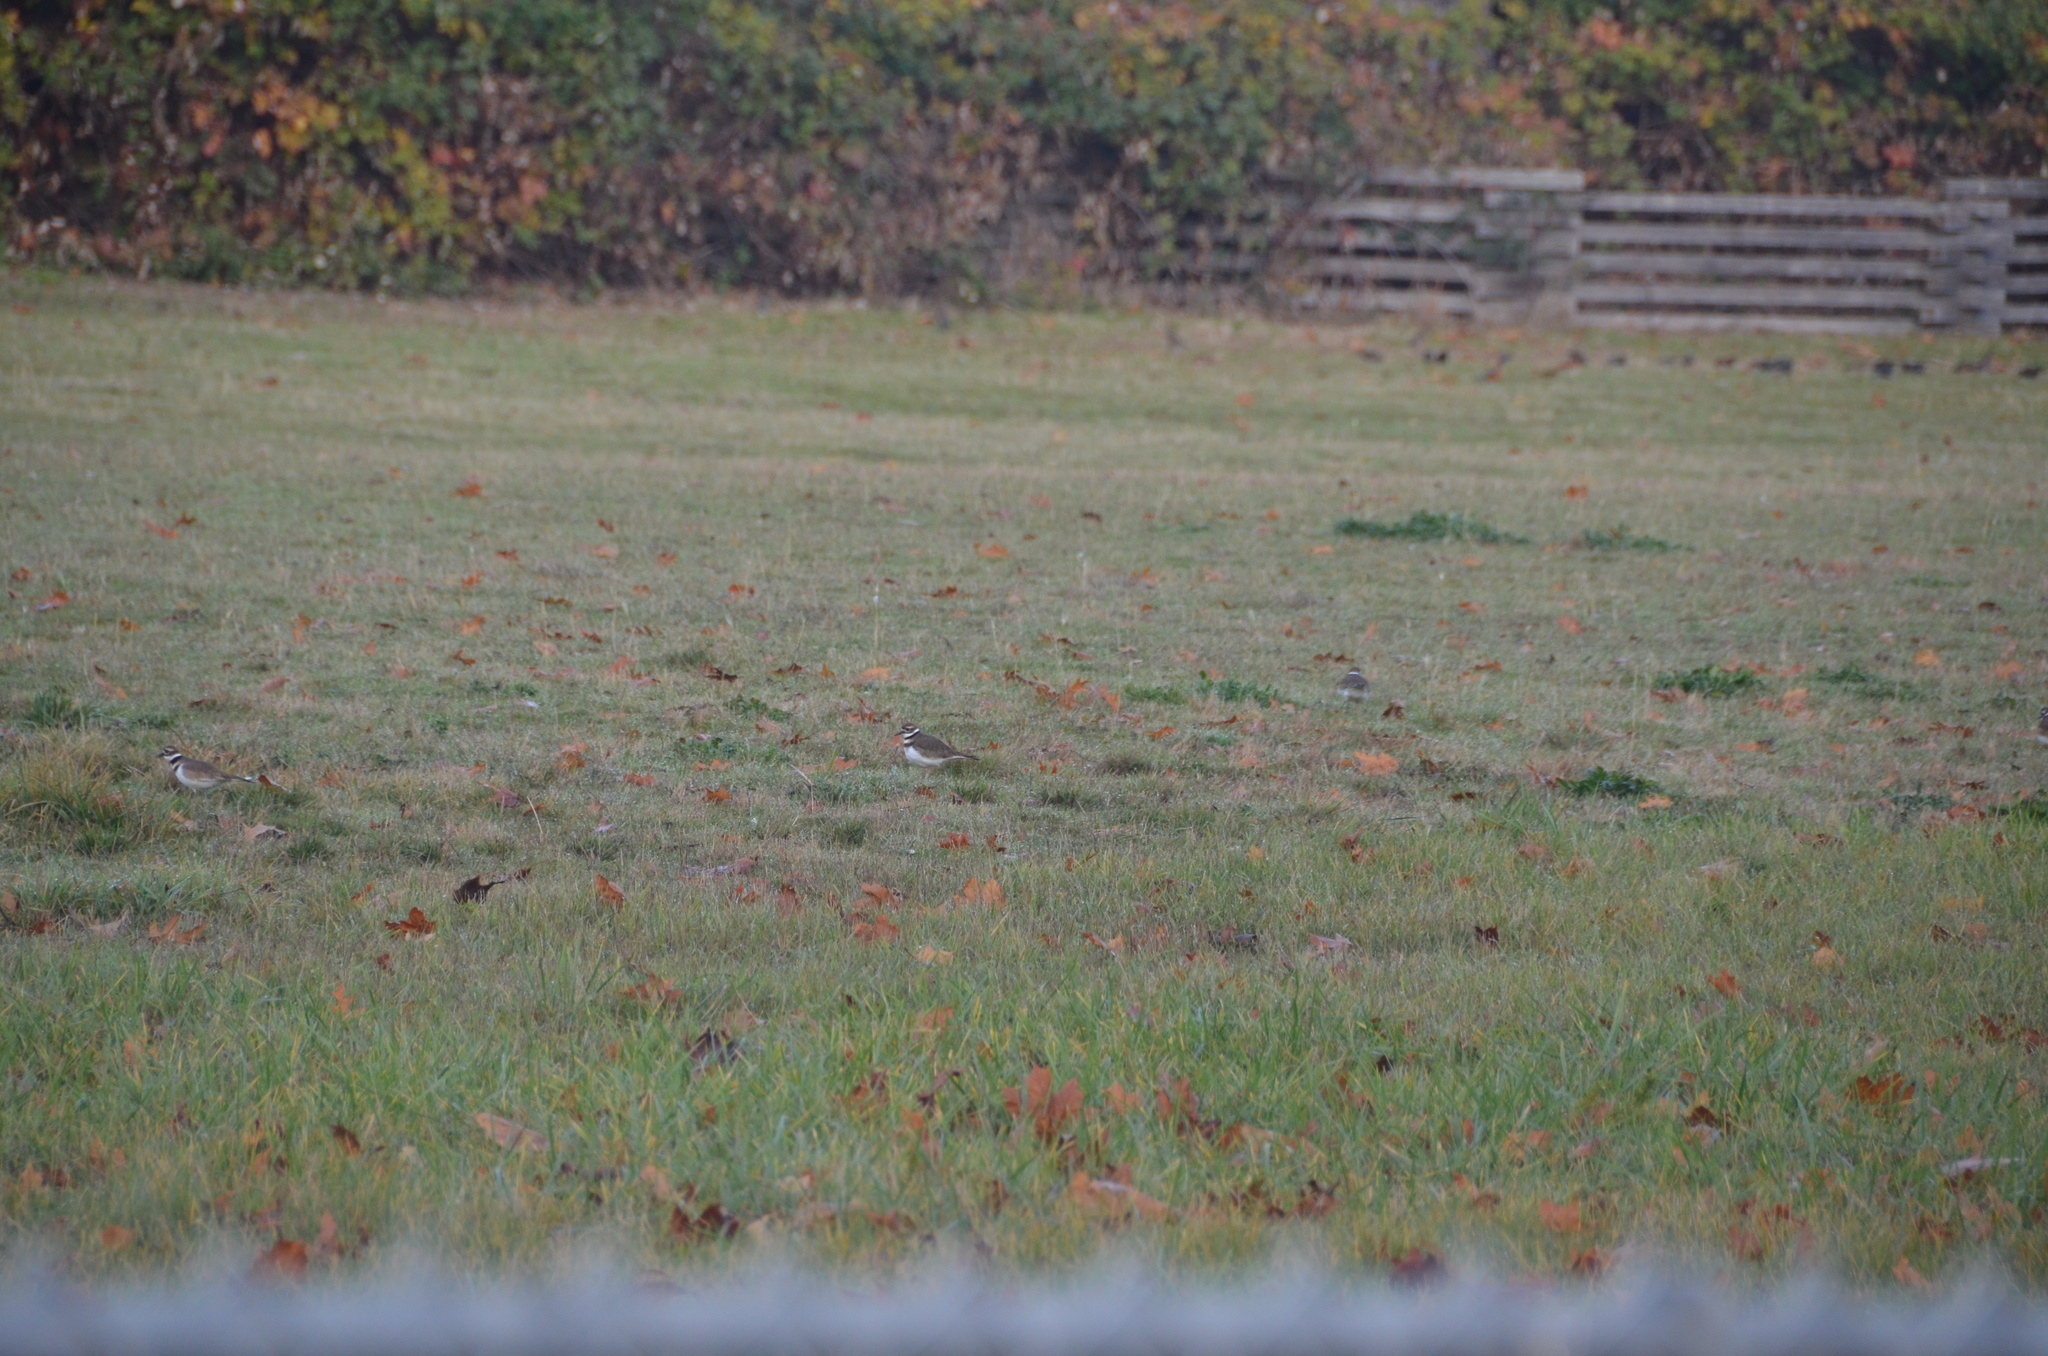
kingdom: Animalia
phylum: Chordata
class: Aves
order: Charadriiformes
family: Charadriidae
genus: Charadrius
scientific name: Charadrius vociferus
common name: Killdeer
